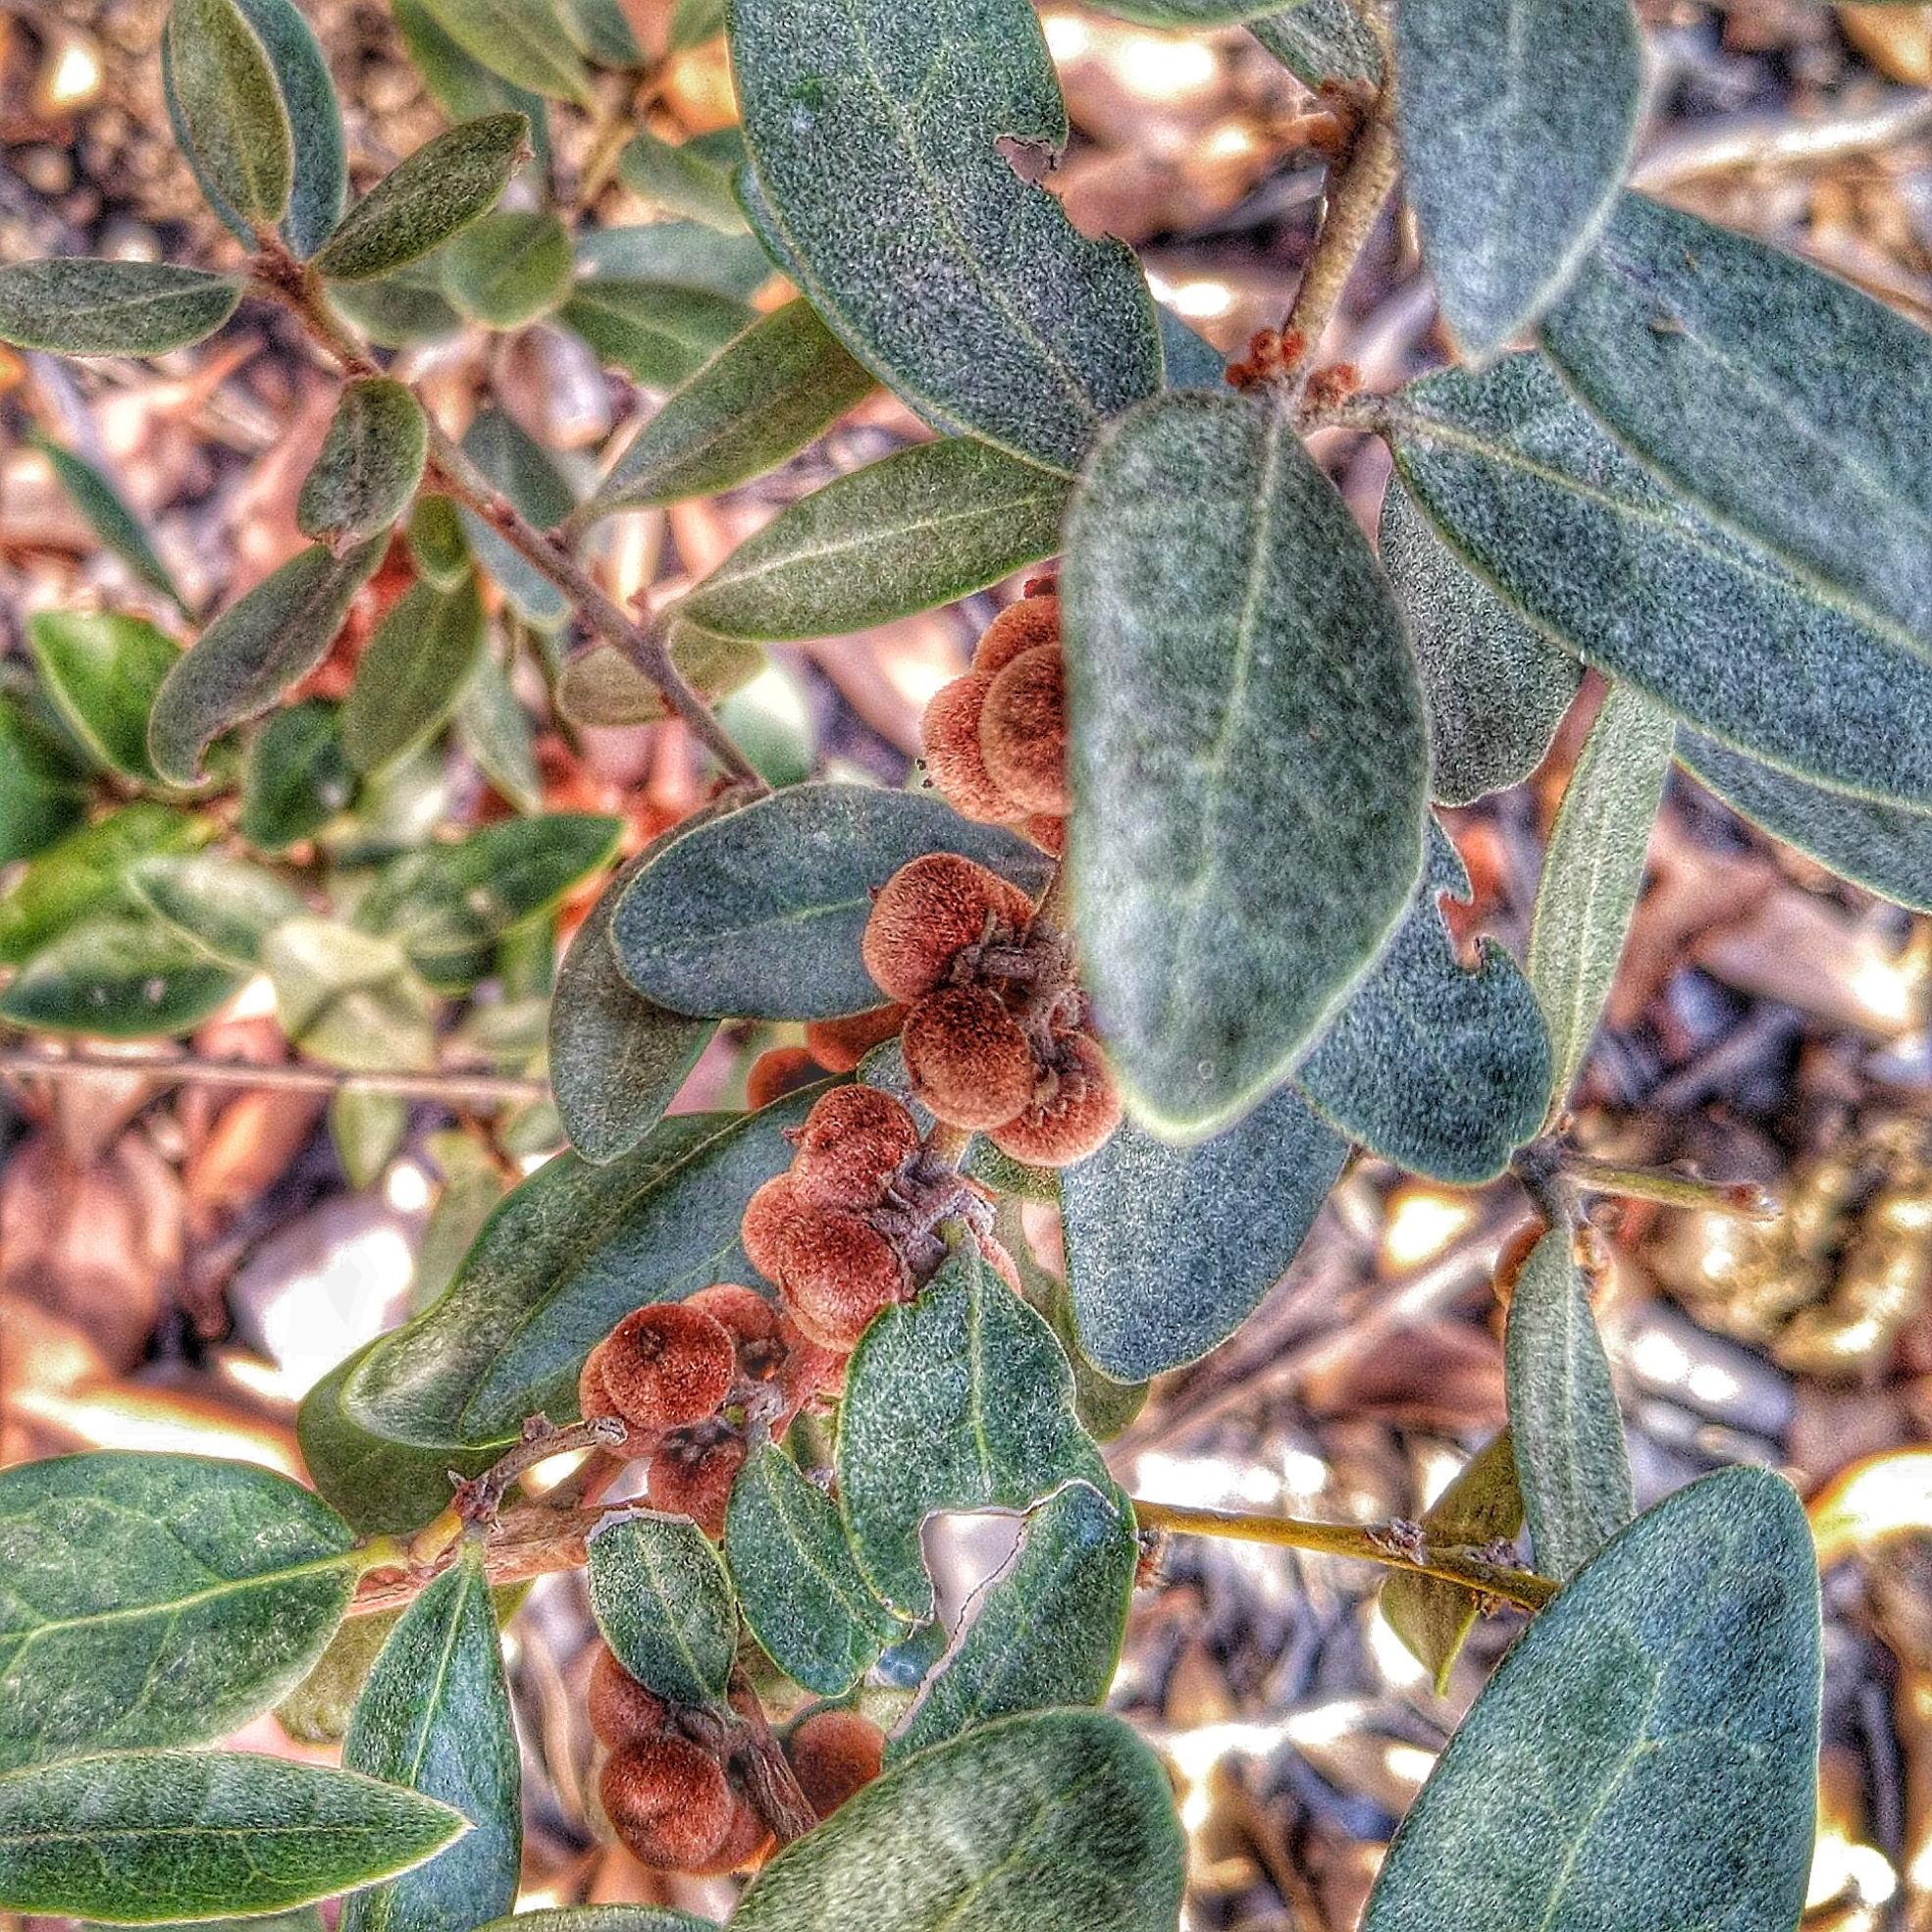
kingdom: Plantae
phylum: Tracheophyta
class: Magnoliopsida
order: Ericales
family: Ebenaceae
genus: Euclea
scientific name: Euclea polyandra
